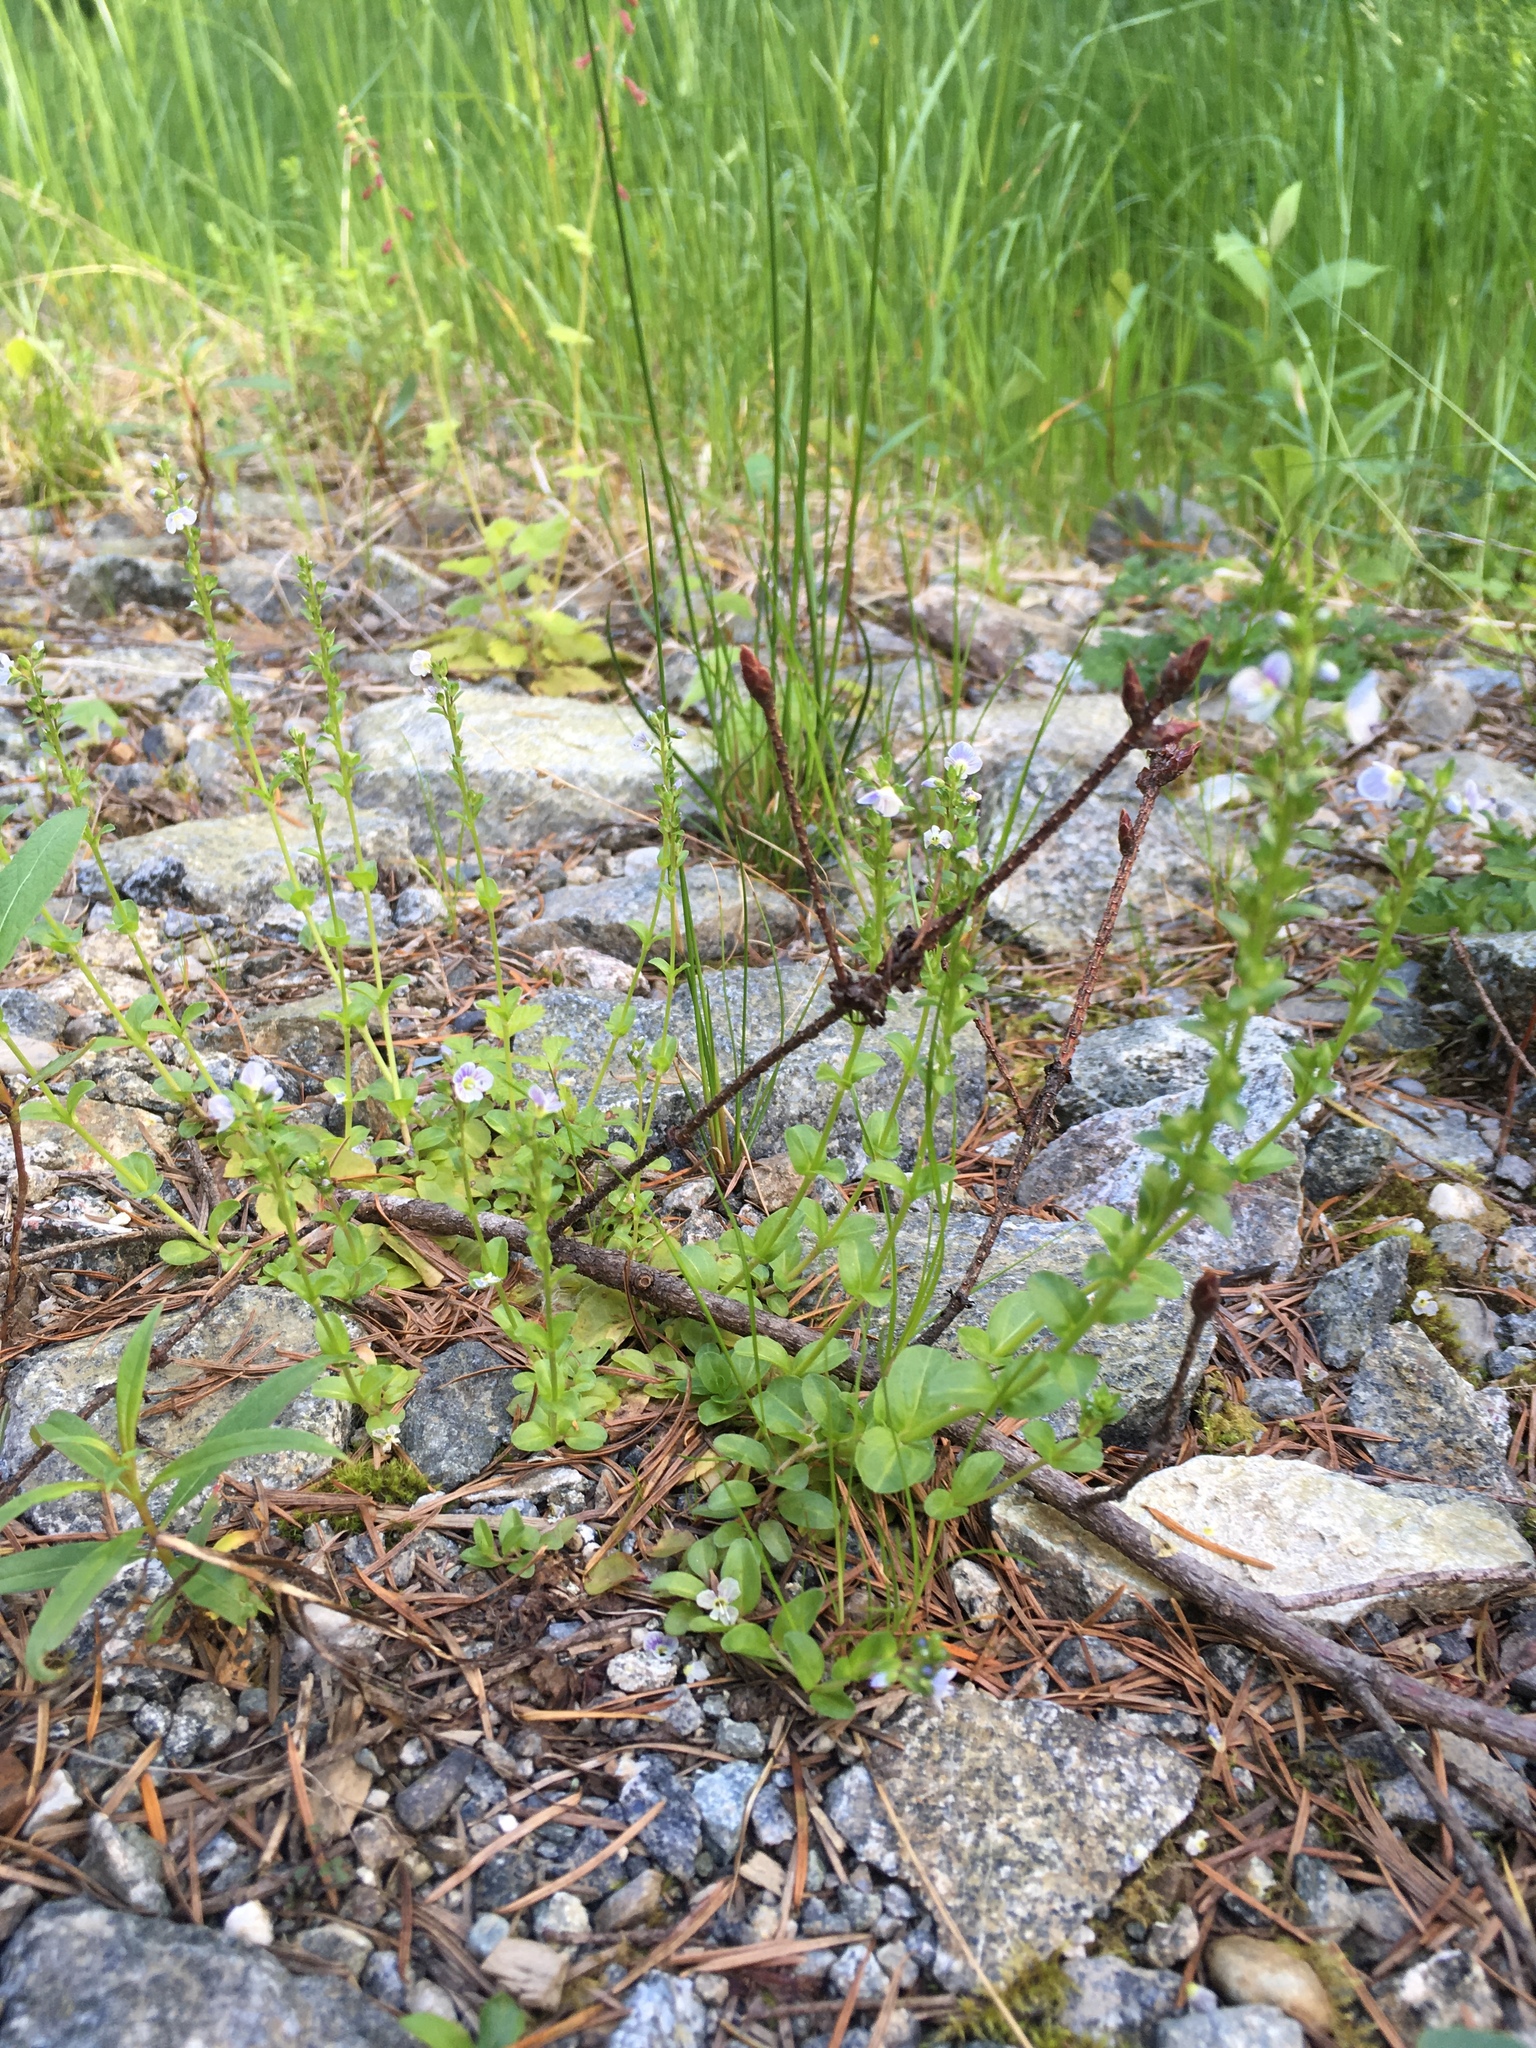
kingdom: Plantae
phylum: Tracheophyta
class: Magnoliopsida
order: Lamiales
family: Plantaginaceae
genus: Veronica
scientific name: Veronica serpyllifolia
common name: Thyme-leaved speedwell
